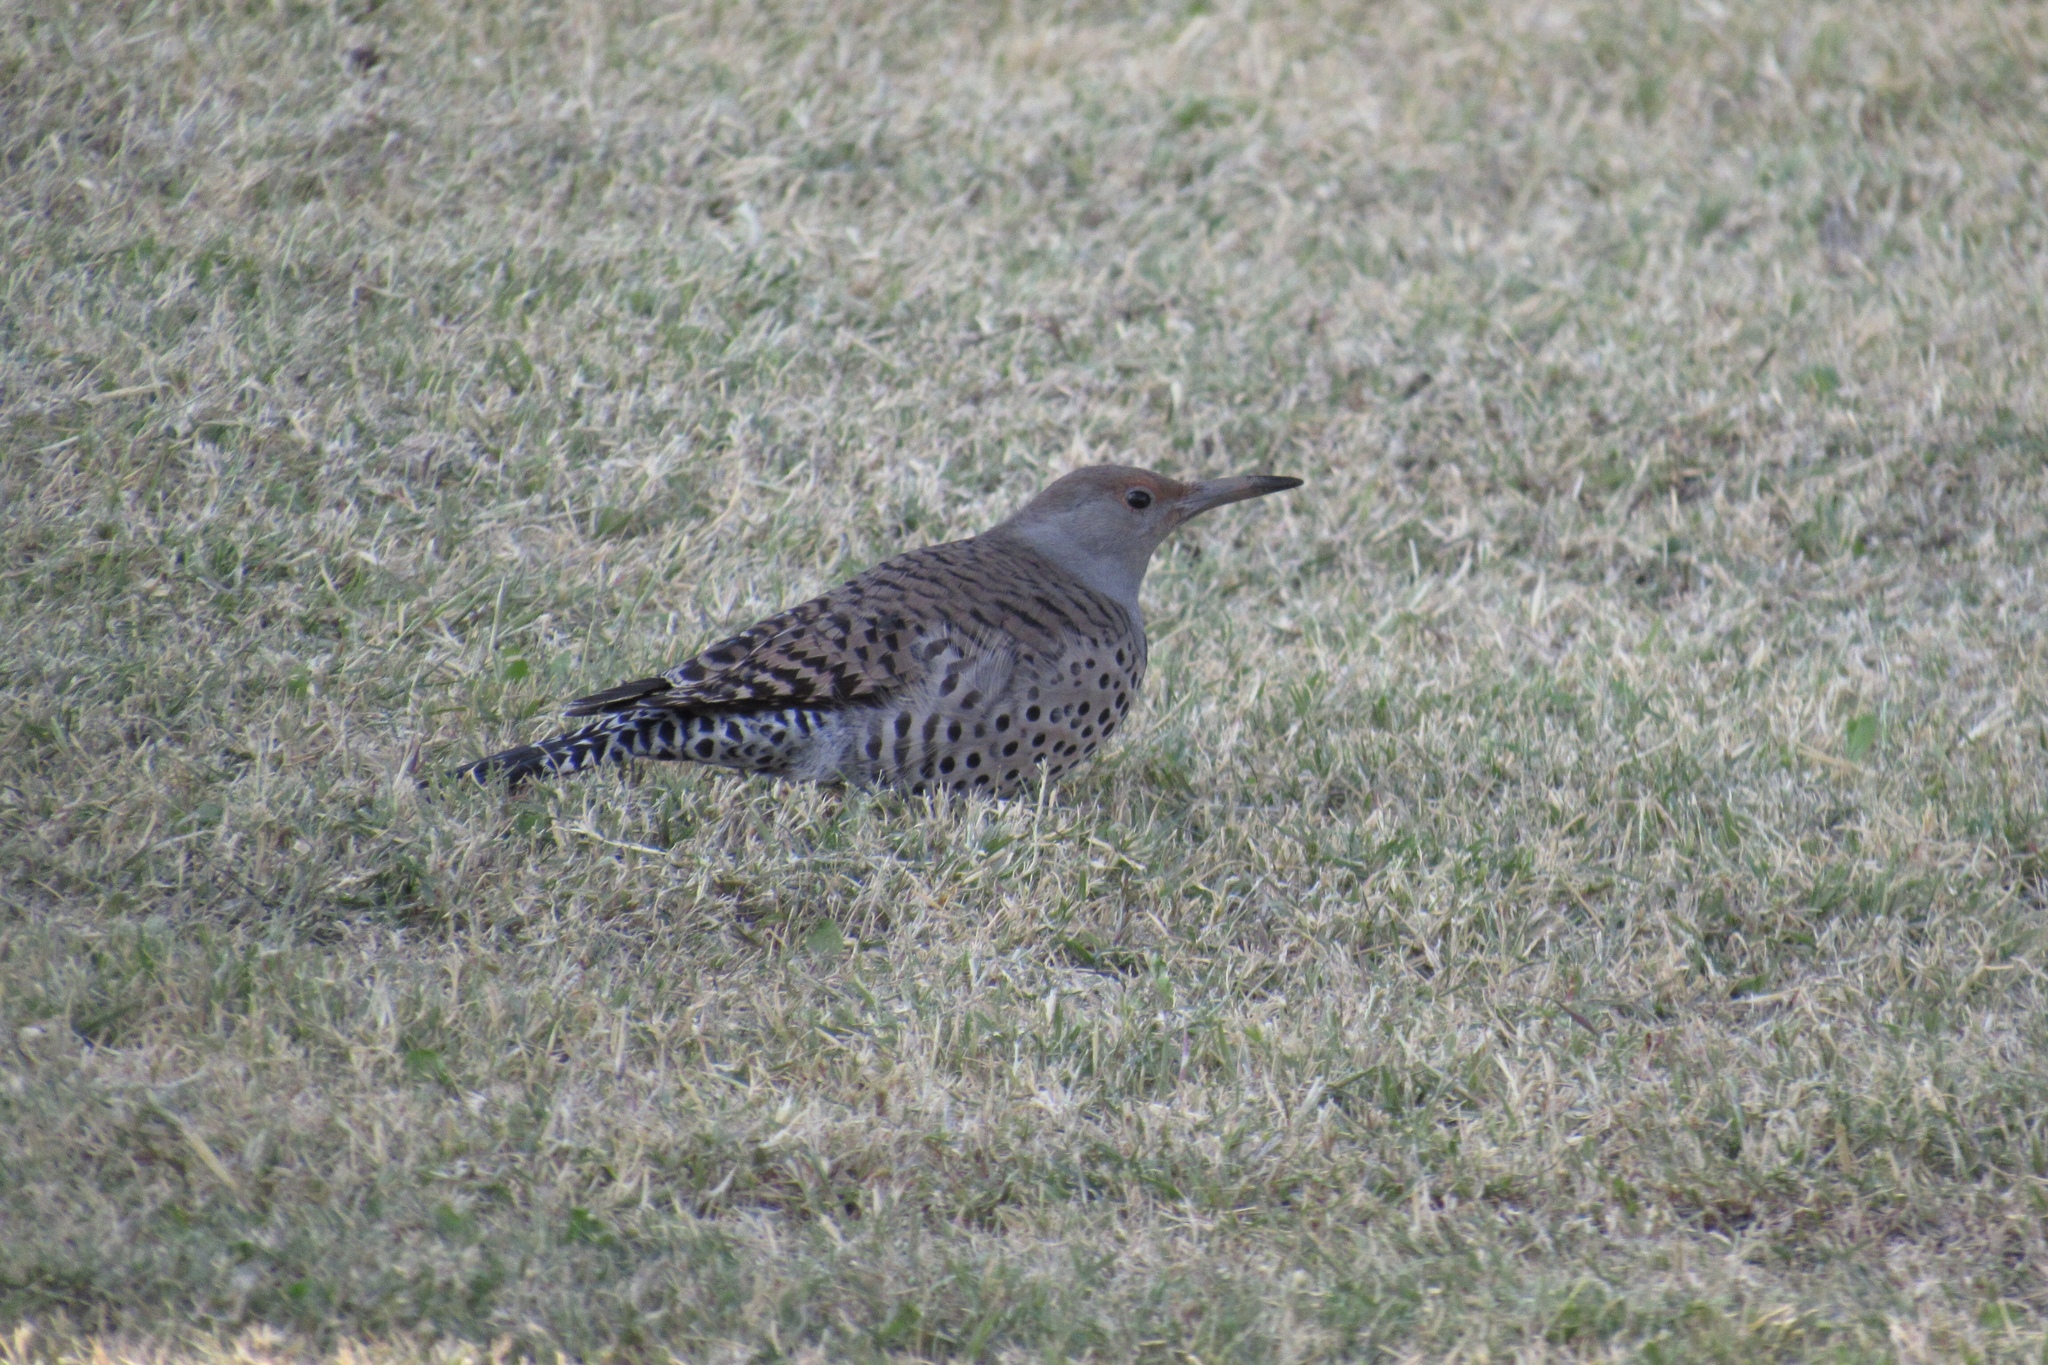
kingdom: Animalia
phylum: Chordata
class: Aves
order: Piciformes
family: Picidae
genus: Colaptes
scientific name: Colaptes auratus
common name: Northern flicker
